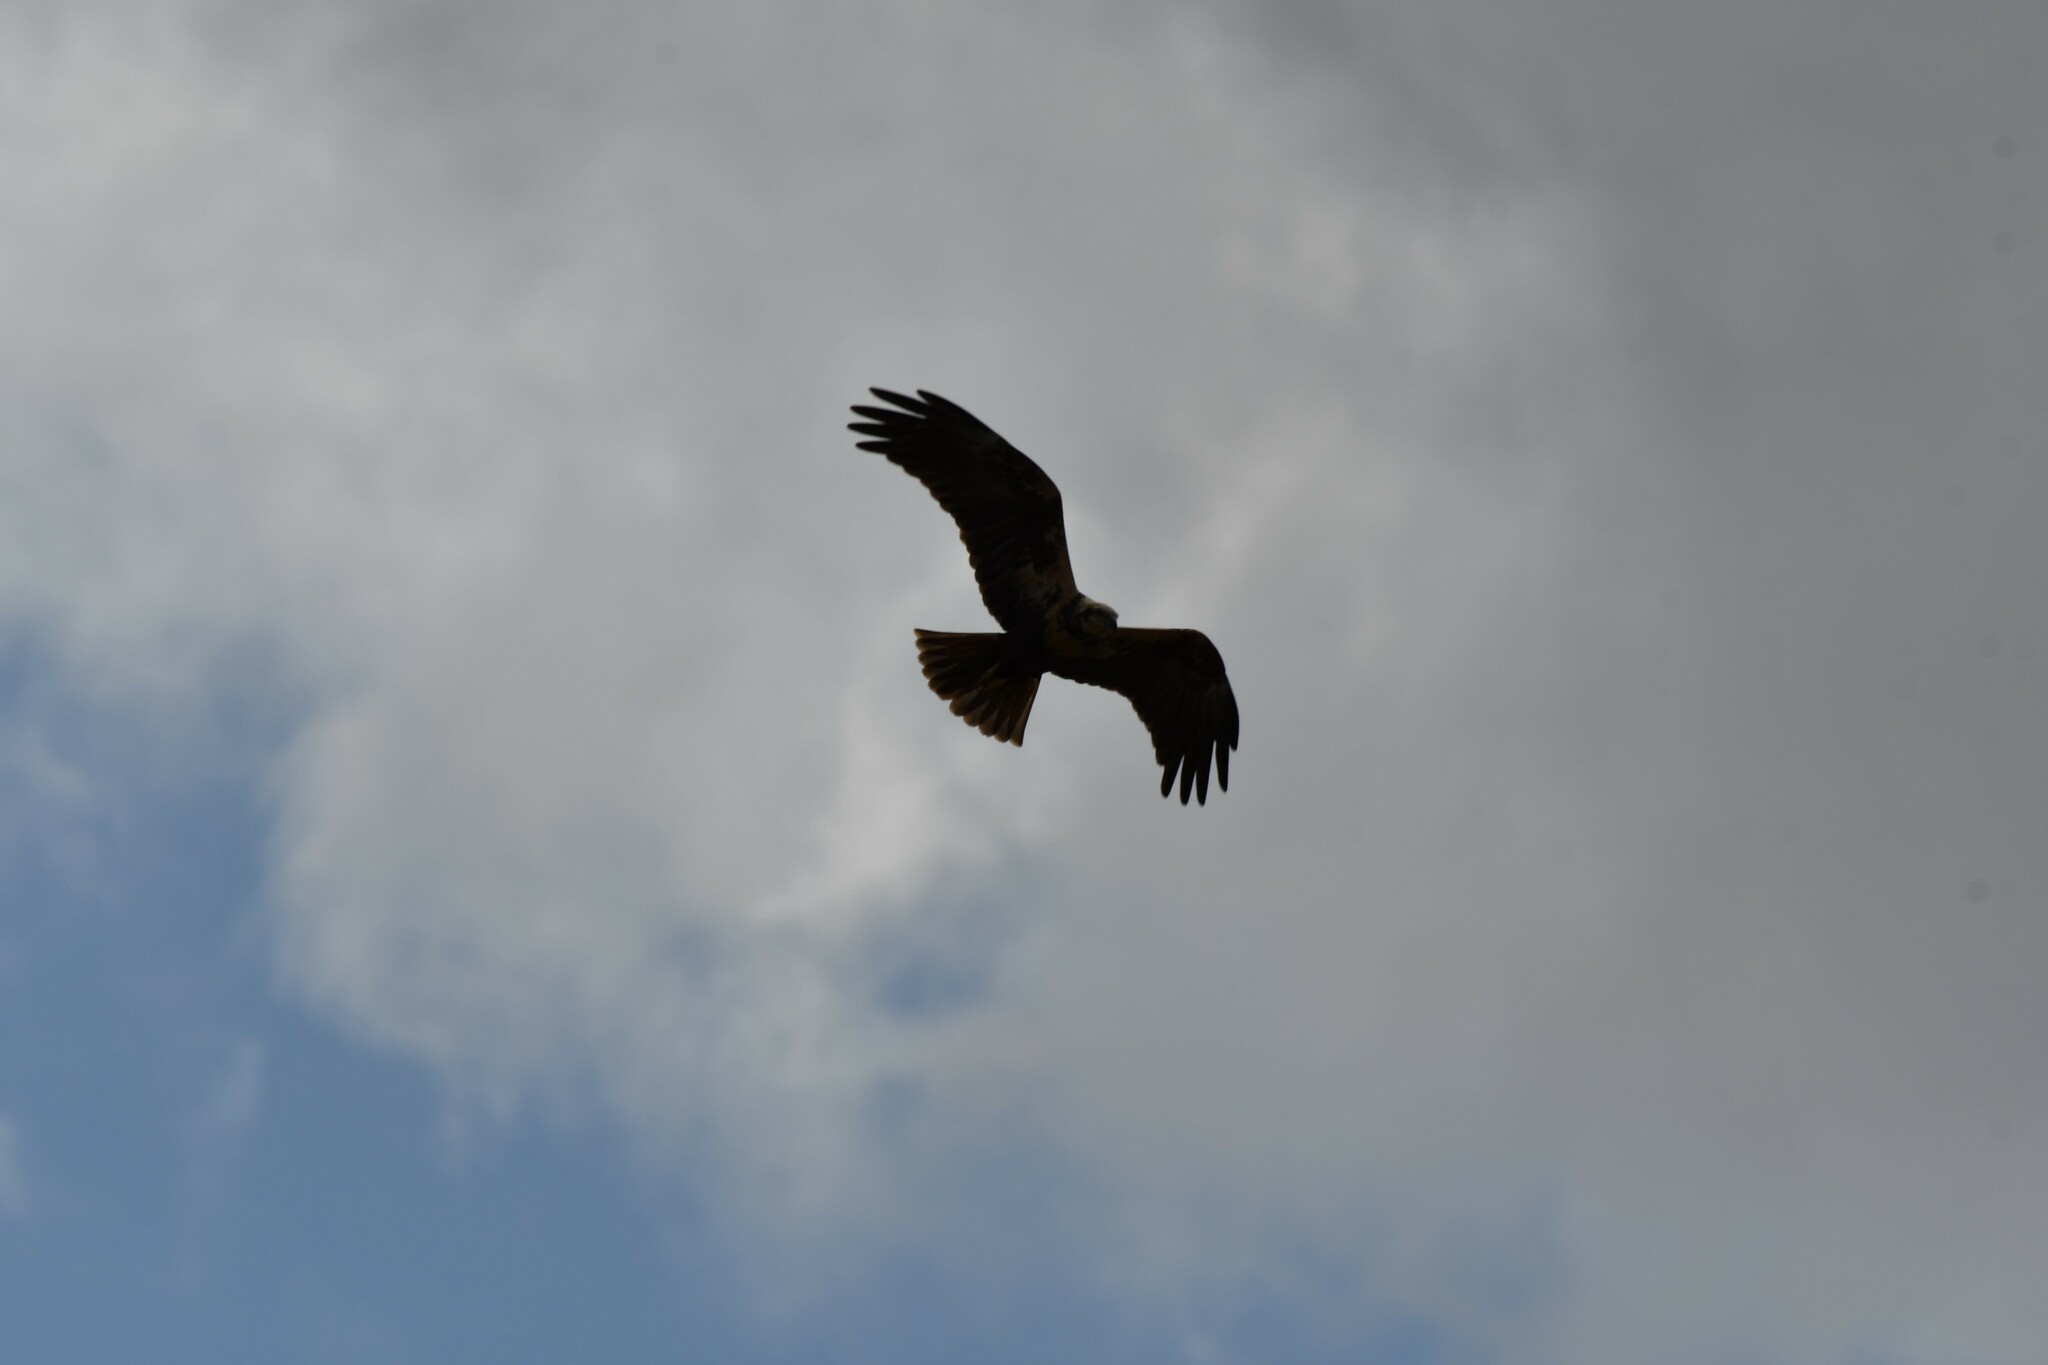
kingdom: Animalia
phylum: Chordata
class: Aves
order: Accipitriformes
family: Accipitridae
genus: Circus
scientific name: Circus aeruginosus
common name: Western marsh harrier
